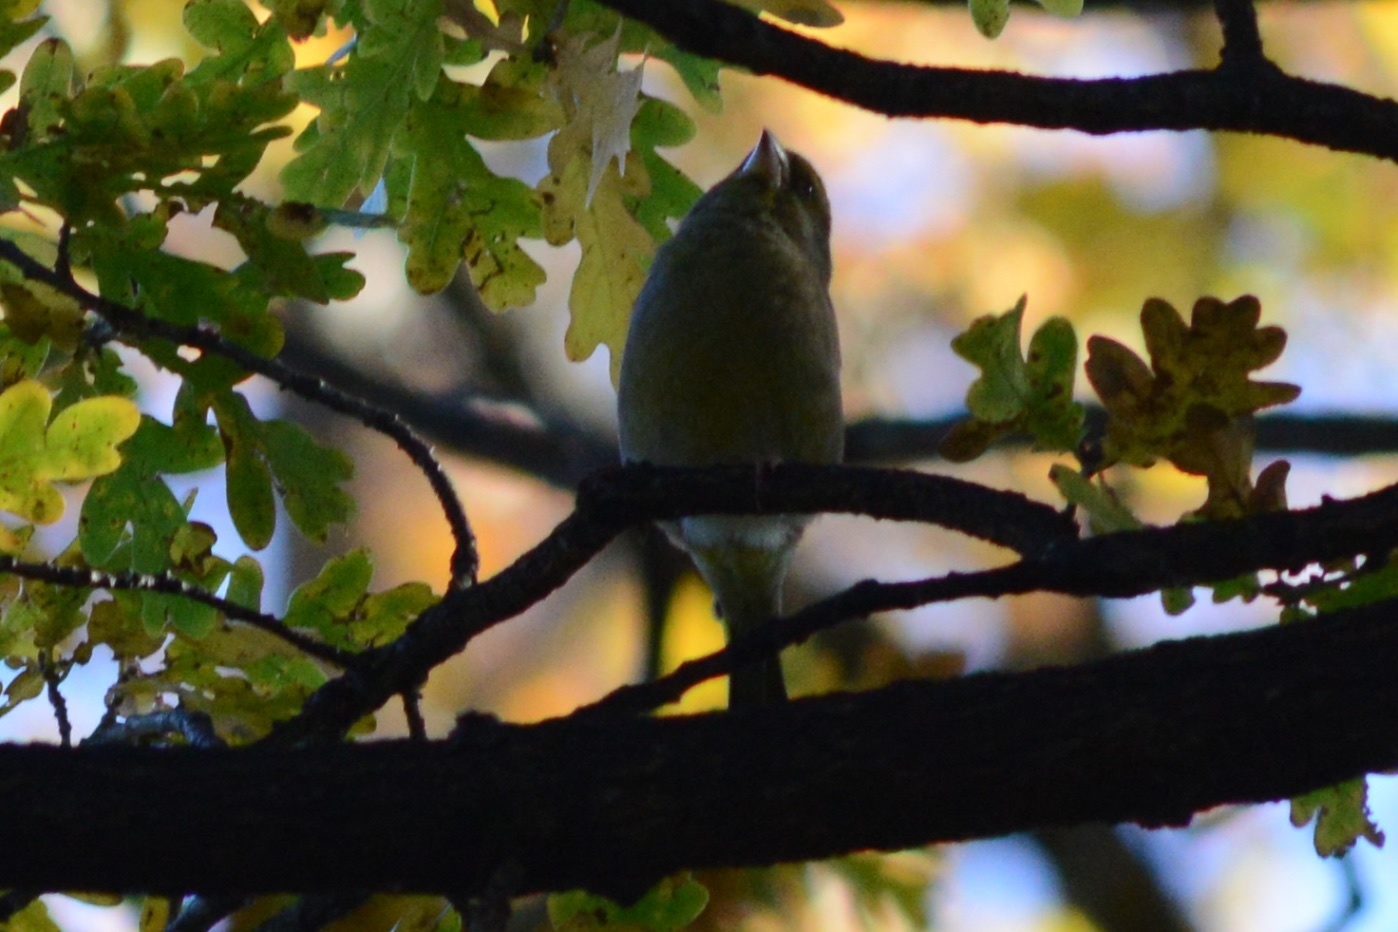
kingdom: Plantae
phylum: Tracheophyta
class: Liliopsida
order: Poales
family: Poaceae
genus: Chloris
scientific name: Chloris chloris
